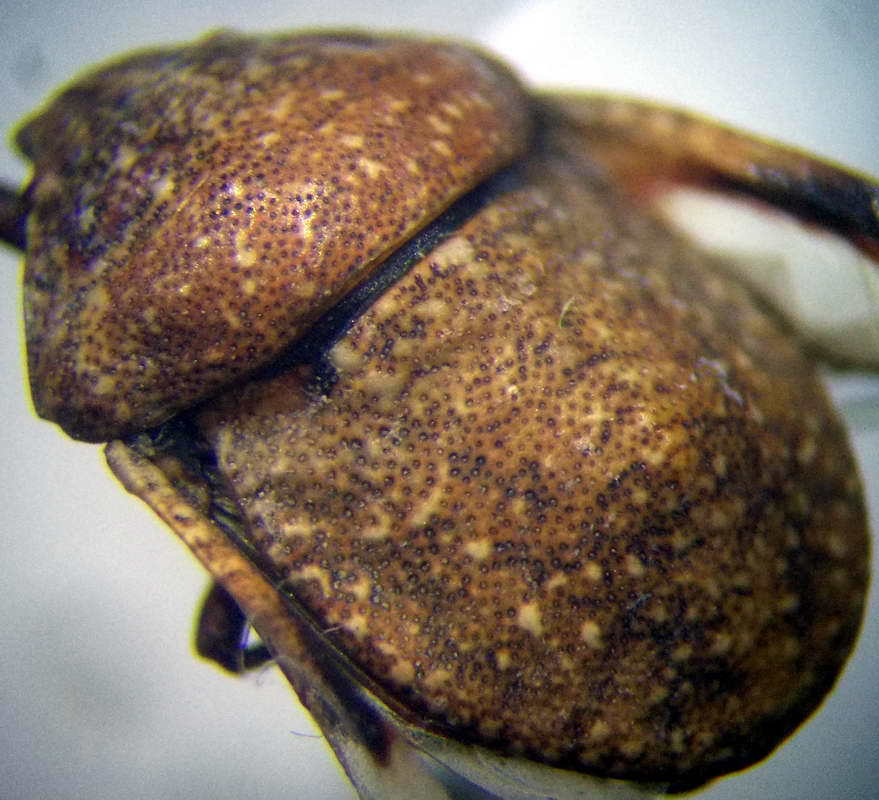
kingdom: Animalia
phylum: Arthropoda
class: Insecta
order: Hemiptera
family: Scutelleridae
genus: Psacasta
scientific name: Psacasta exanthematica
